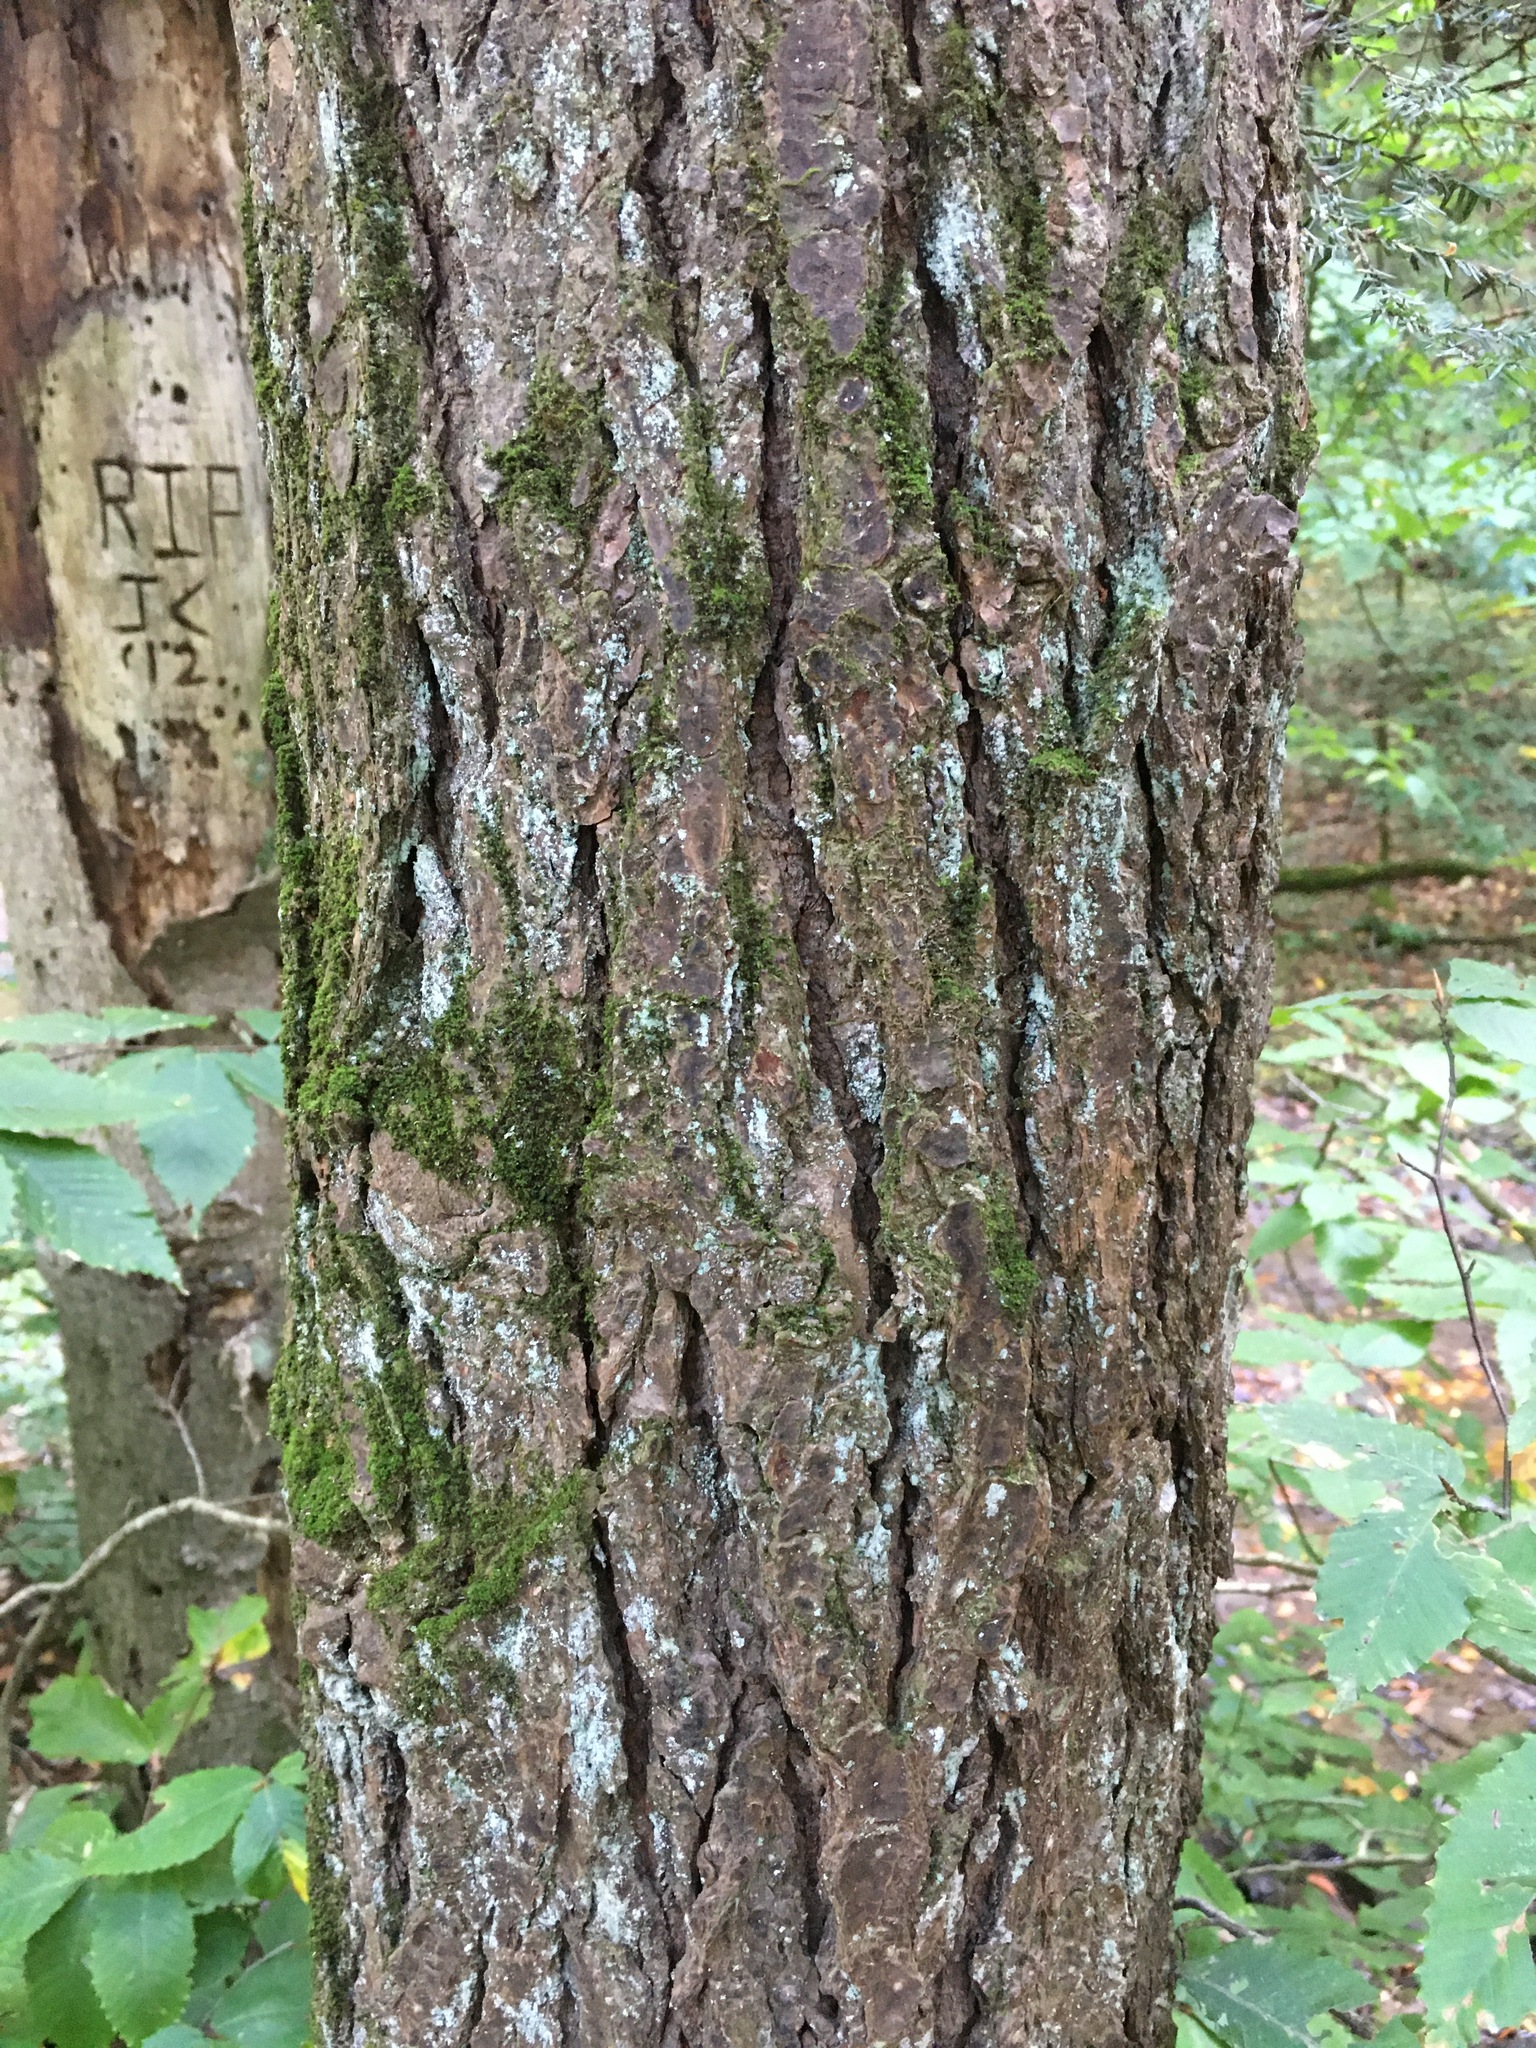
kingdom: Plantae
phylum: Tracheophyta
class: Pinopsida
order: Pinales
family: Pinaceae
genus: Tsuga
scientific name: Tsuga canadensis
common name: Eastern hemlock
